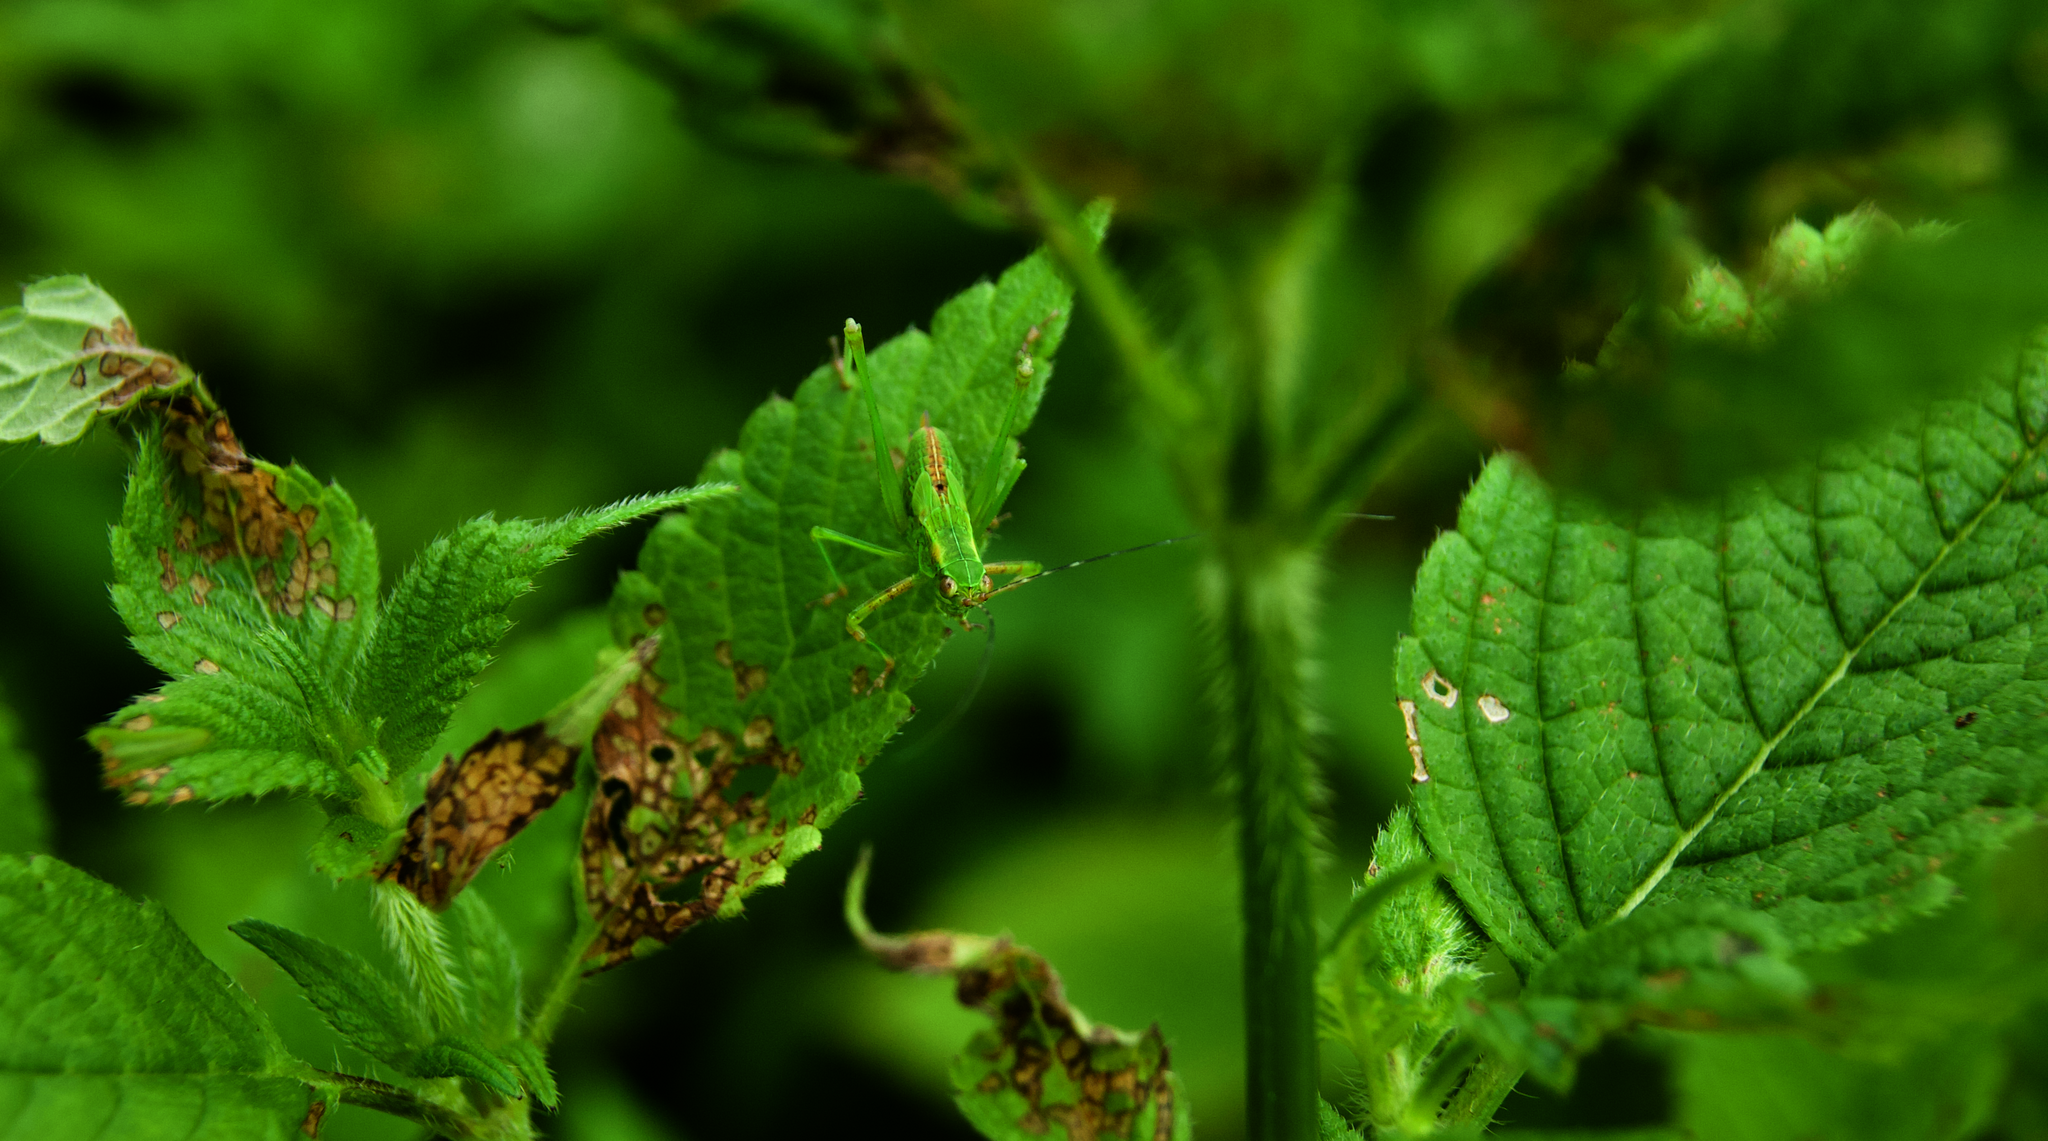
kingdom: Animalia
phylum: Arthropoda
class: Insecta
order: Orthoptera
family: Tettigoniidae
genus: Scudderia
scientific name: Scudderia
